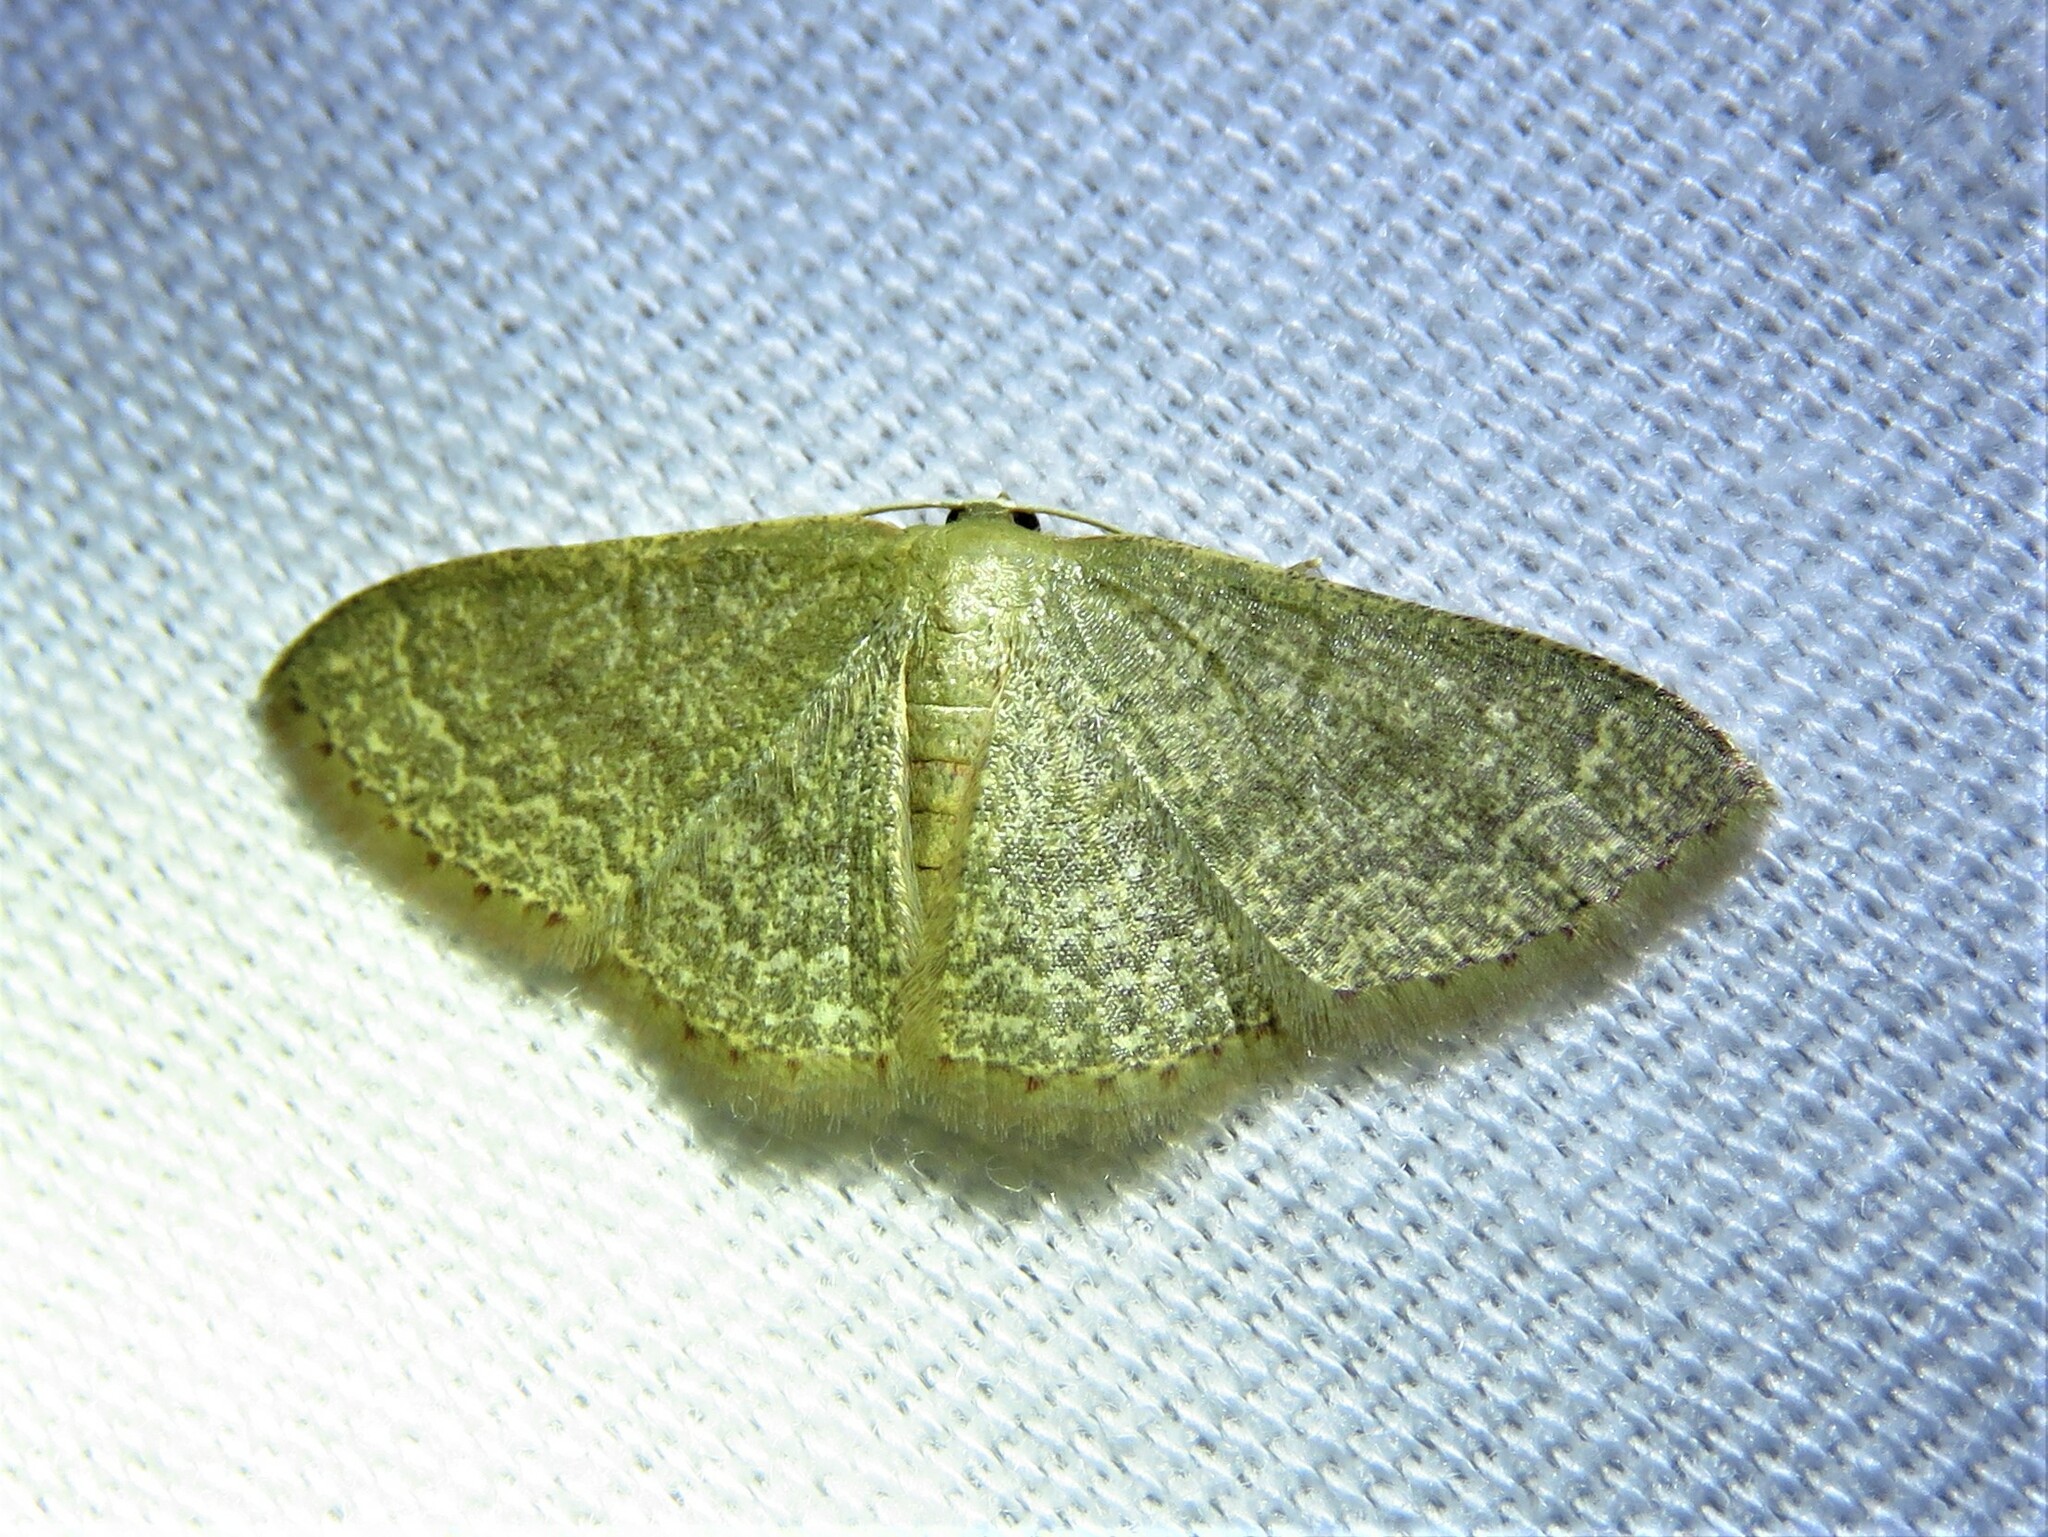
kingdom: Animalia
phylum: Arthropoda
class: Insecta
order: Lepidoptera
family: Geometridae
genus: Pleuroprucha
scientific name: Pleuroprucha insulsaria
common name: Common tan wave
